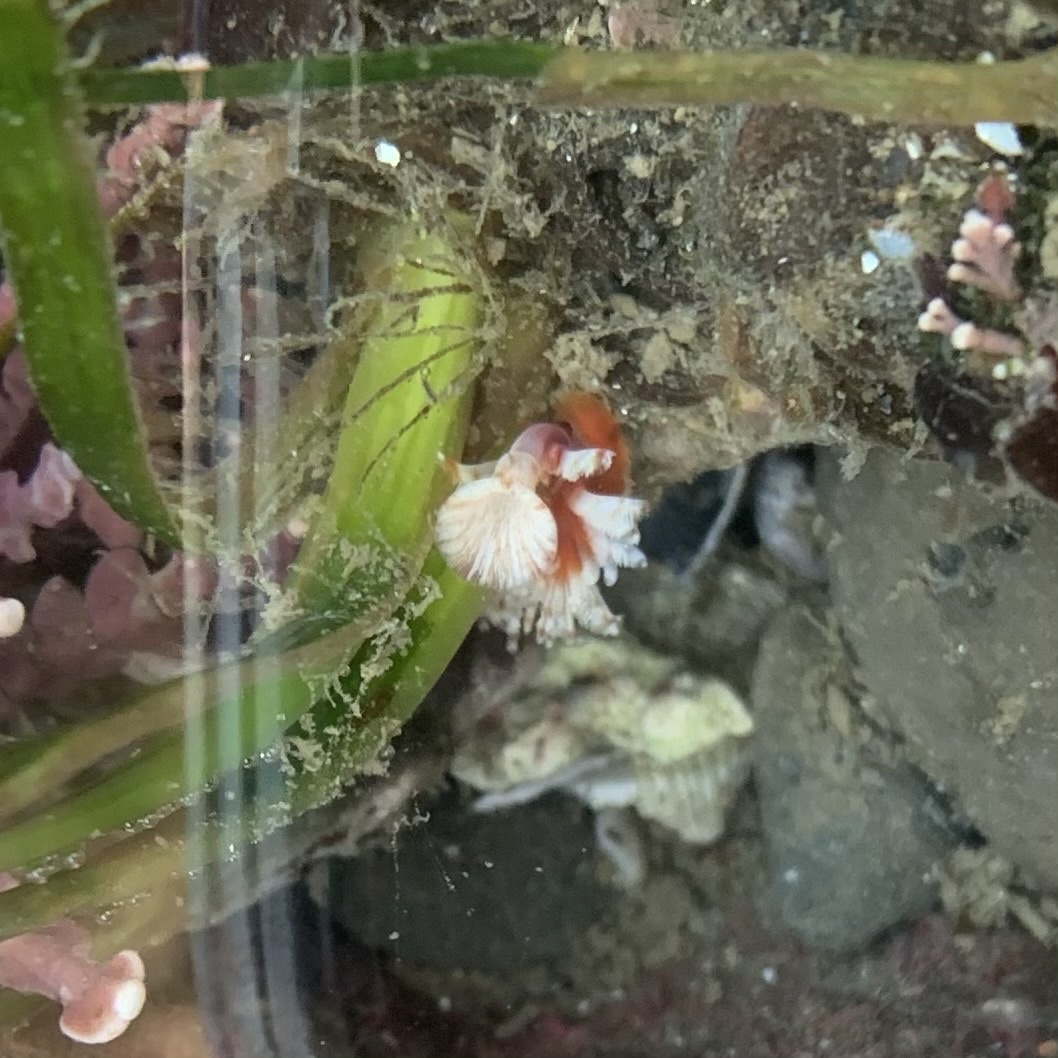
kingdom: Animalia
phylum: Annelida
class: Polychaeta
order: Sabellida
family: Serpulidae
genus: Serpula
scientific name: Serpula columbiana
